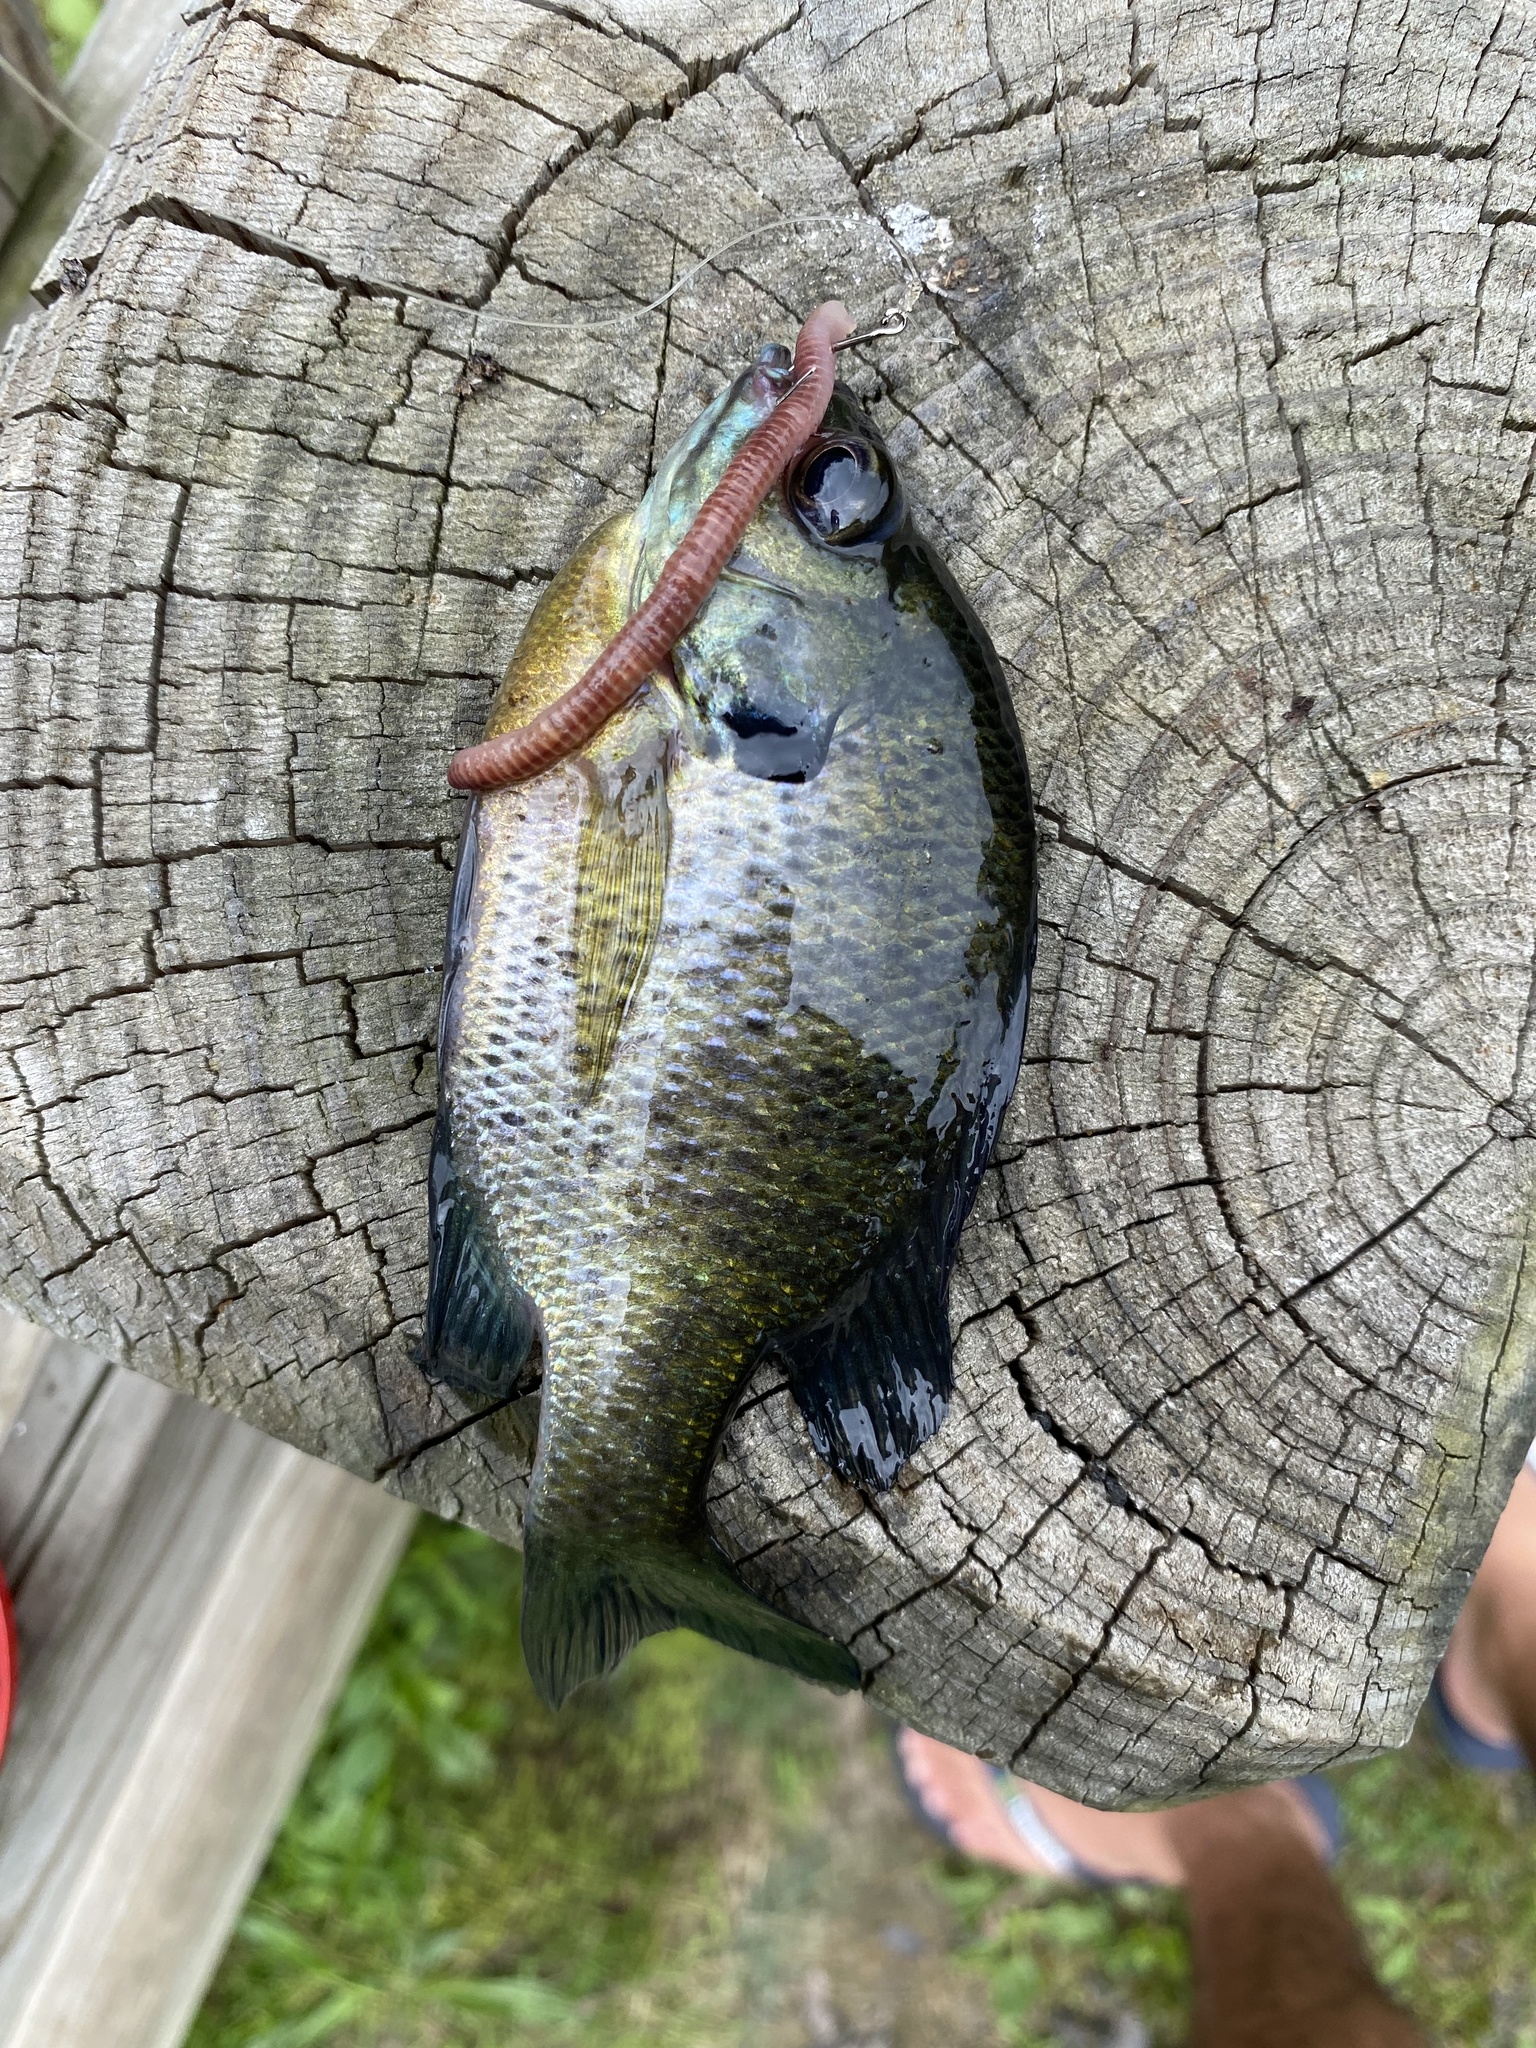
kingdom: Animalia
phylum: Chordata
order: Perciformes
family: Centrarchidae
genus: Lepomis
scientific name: Lepomis macrochirus
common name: Bluegill
